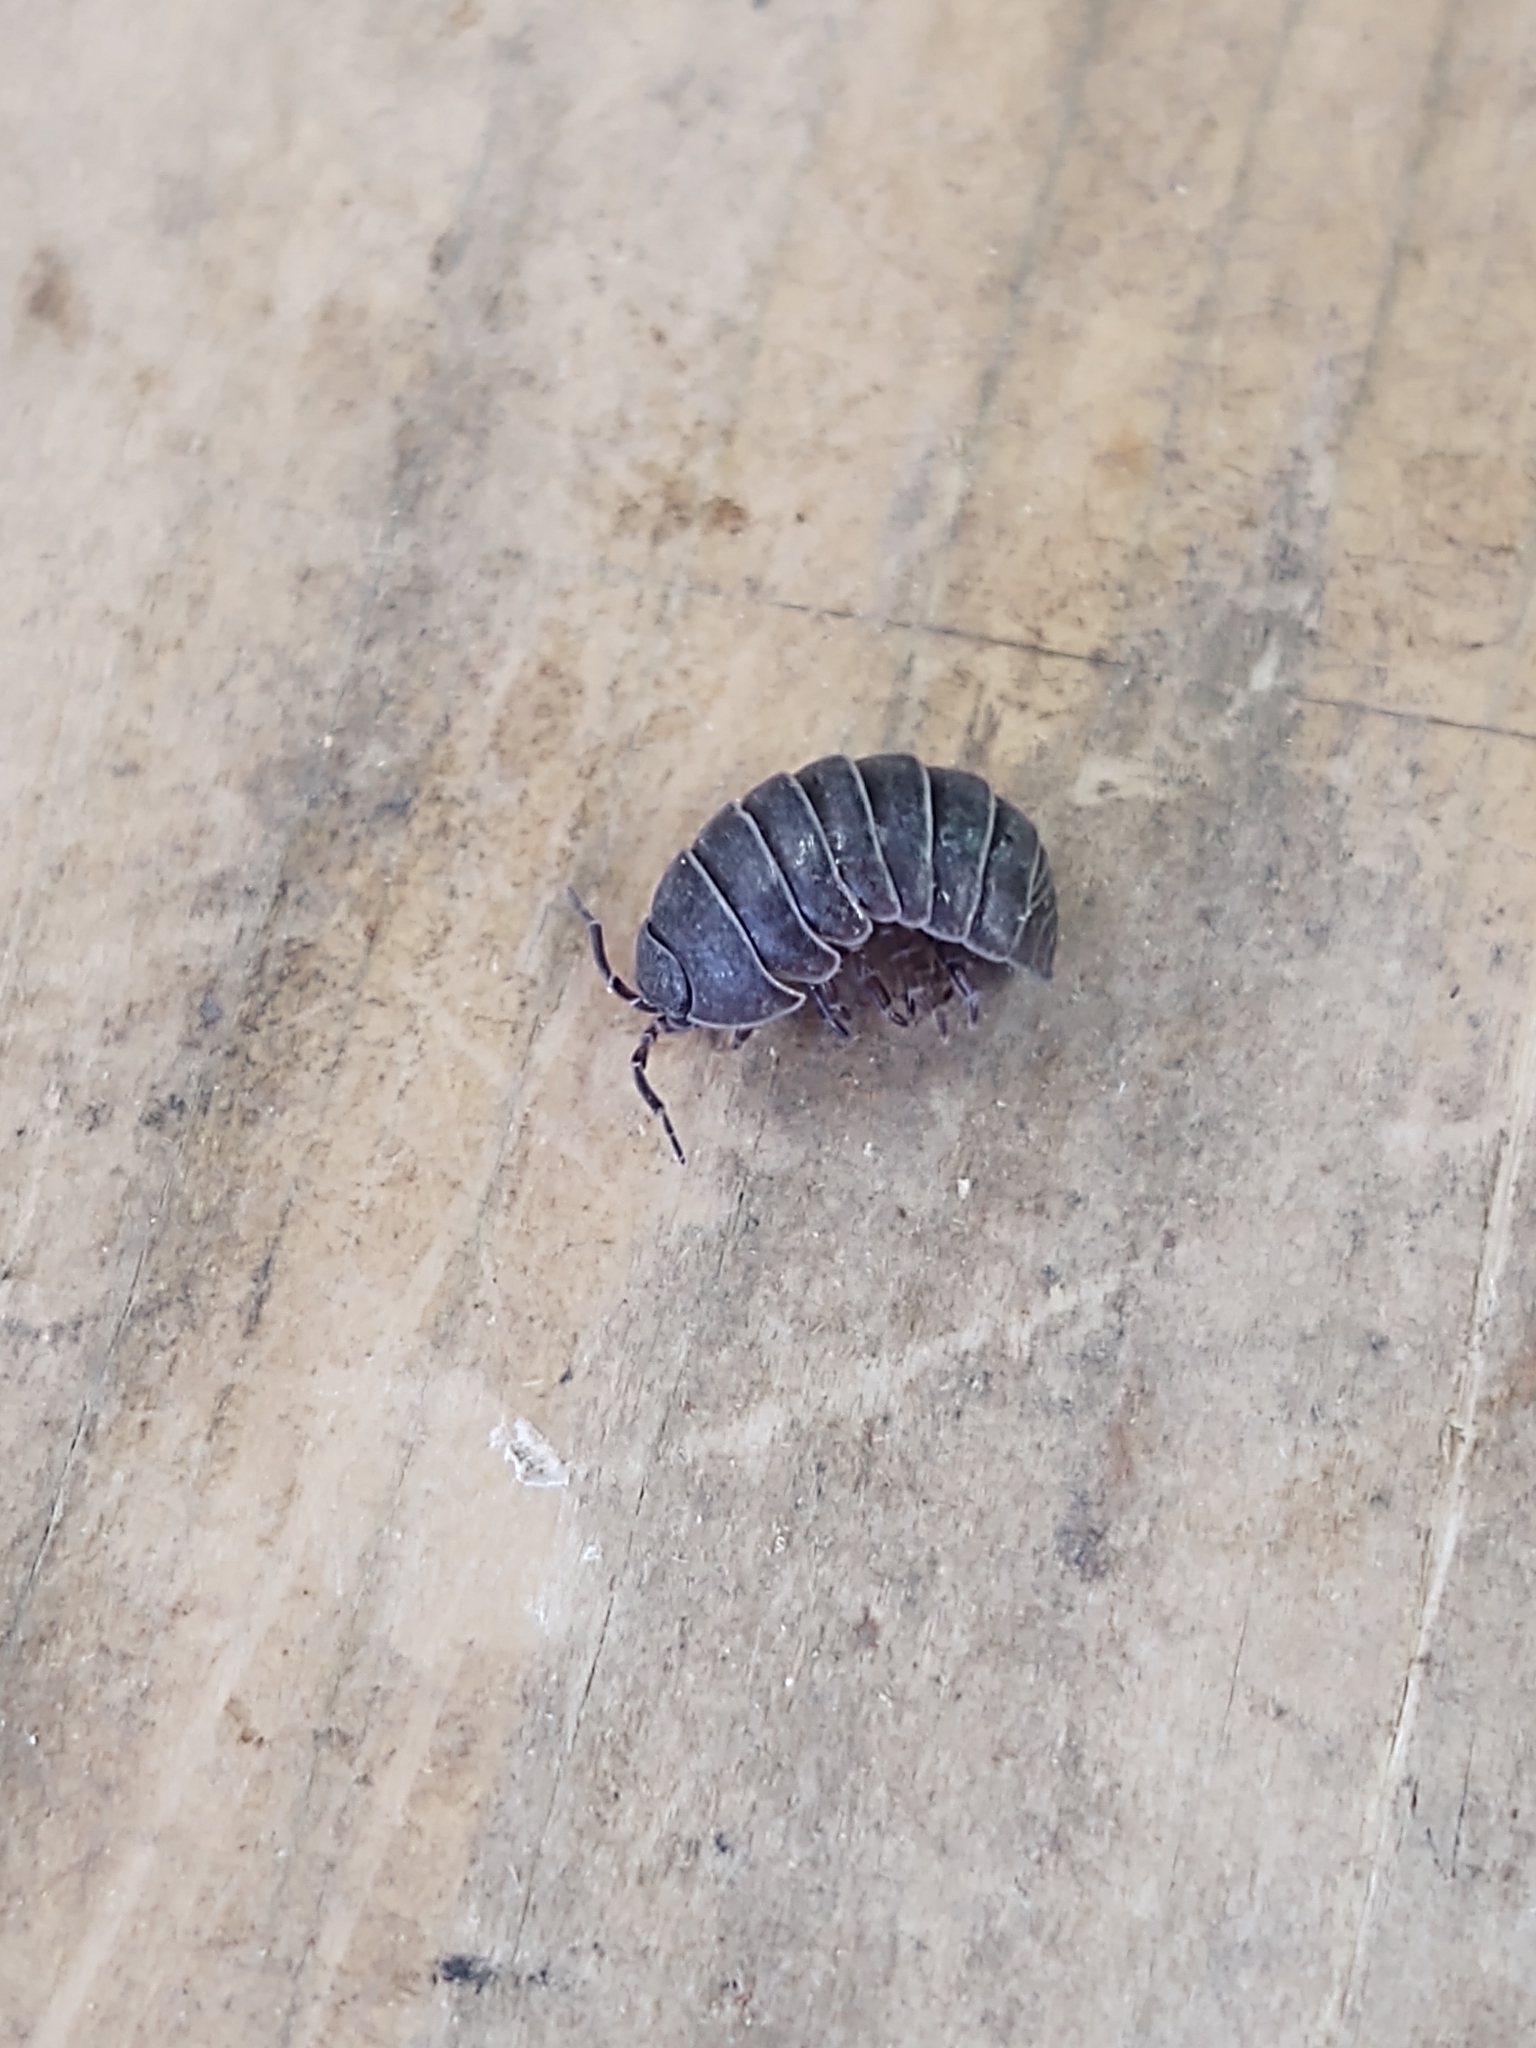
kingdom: Animalia
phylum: Arthropoda
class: Malacostraca
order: Isopoda
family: Armadillidiidae
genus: Armadillidium
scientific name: Armadillidium vulgare
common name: Common pill woodlouse
